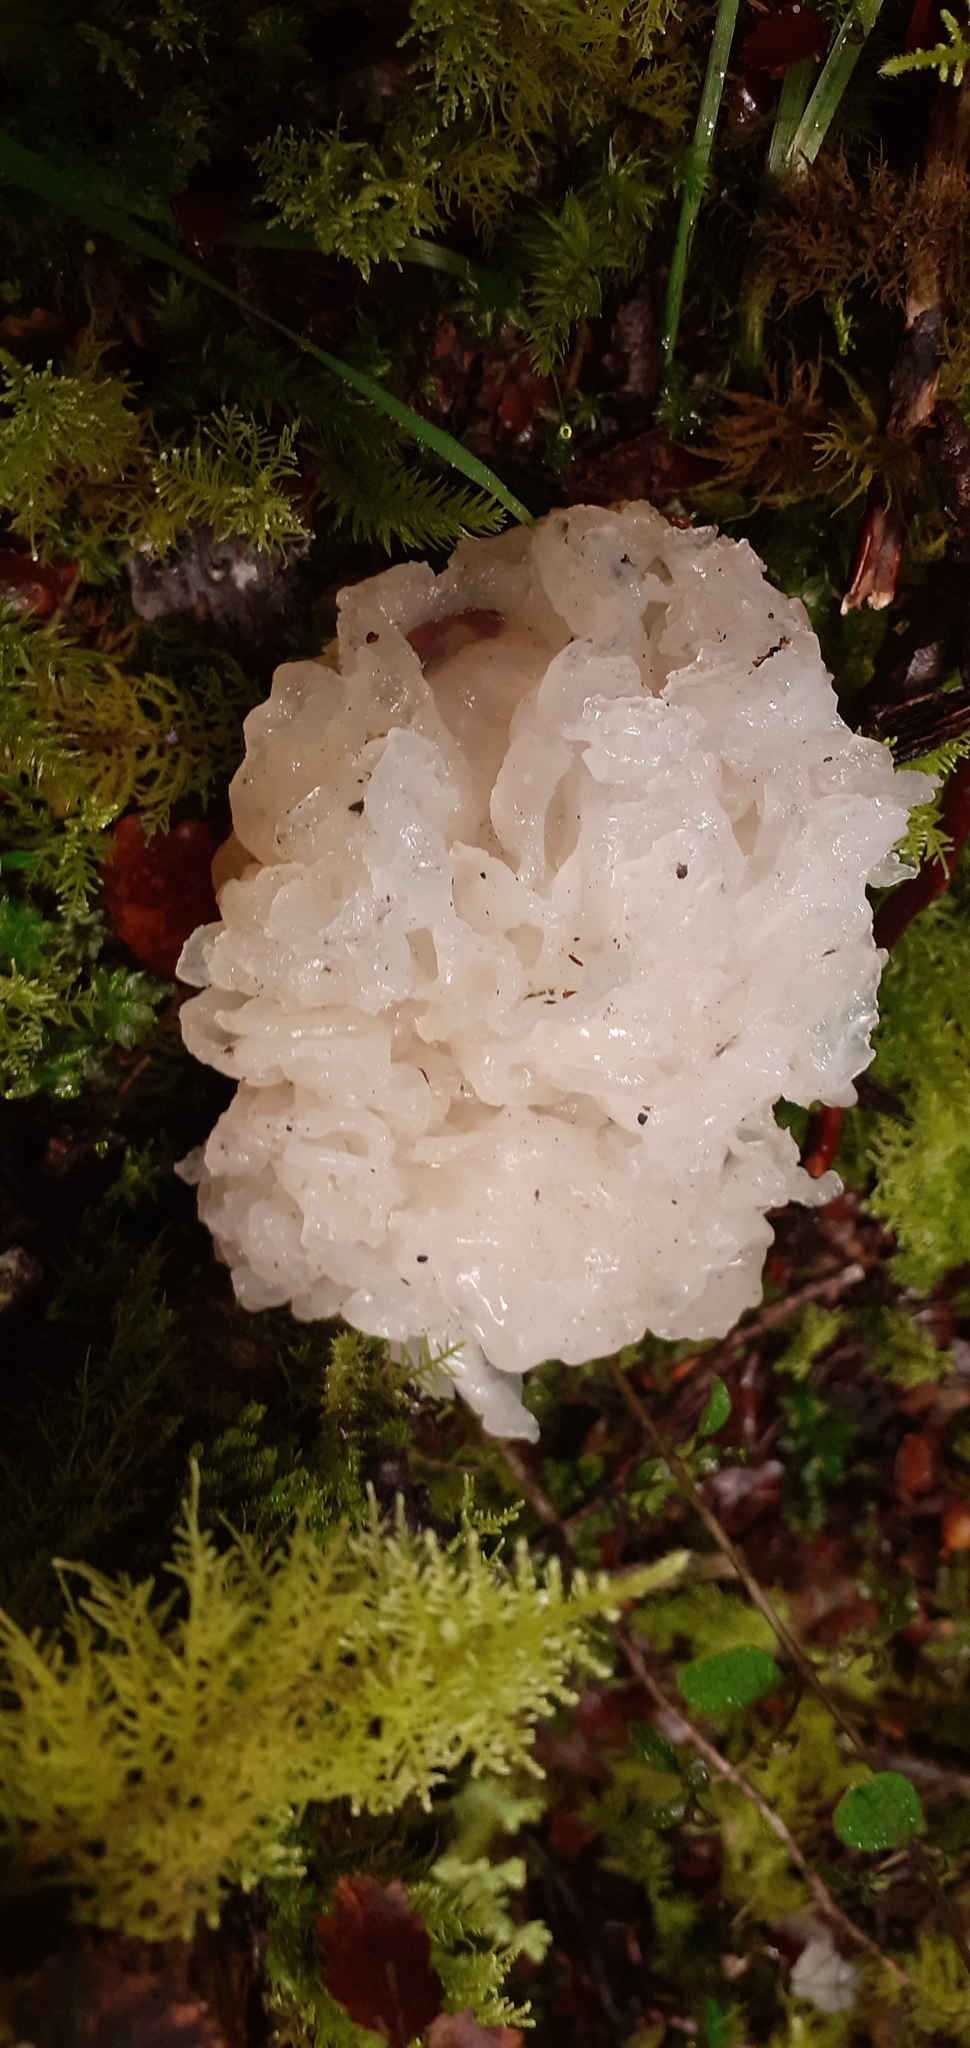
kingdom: Fungi
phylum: Basidiomycota
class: Tremellomycetes
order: Tremellales
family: Tremellaceae
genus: Tremella
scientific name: Tremella fuciformis
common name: Snow fungus
